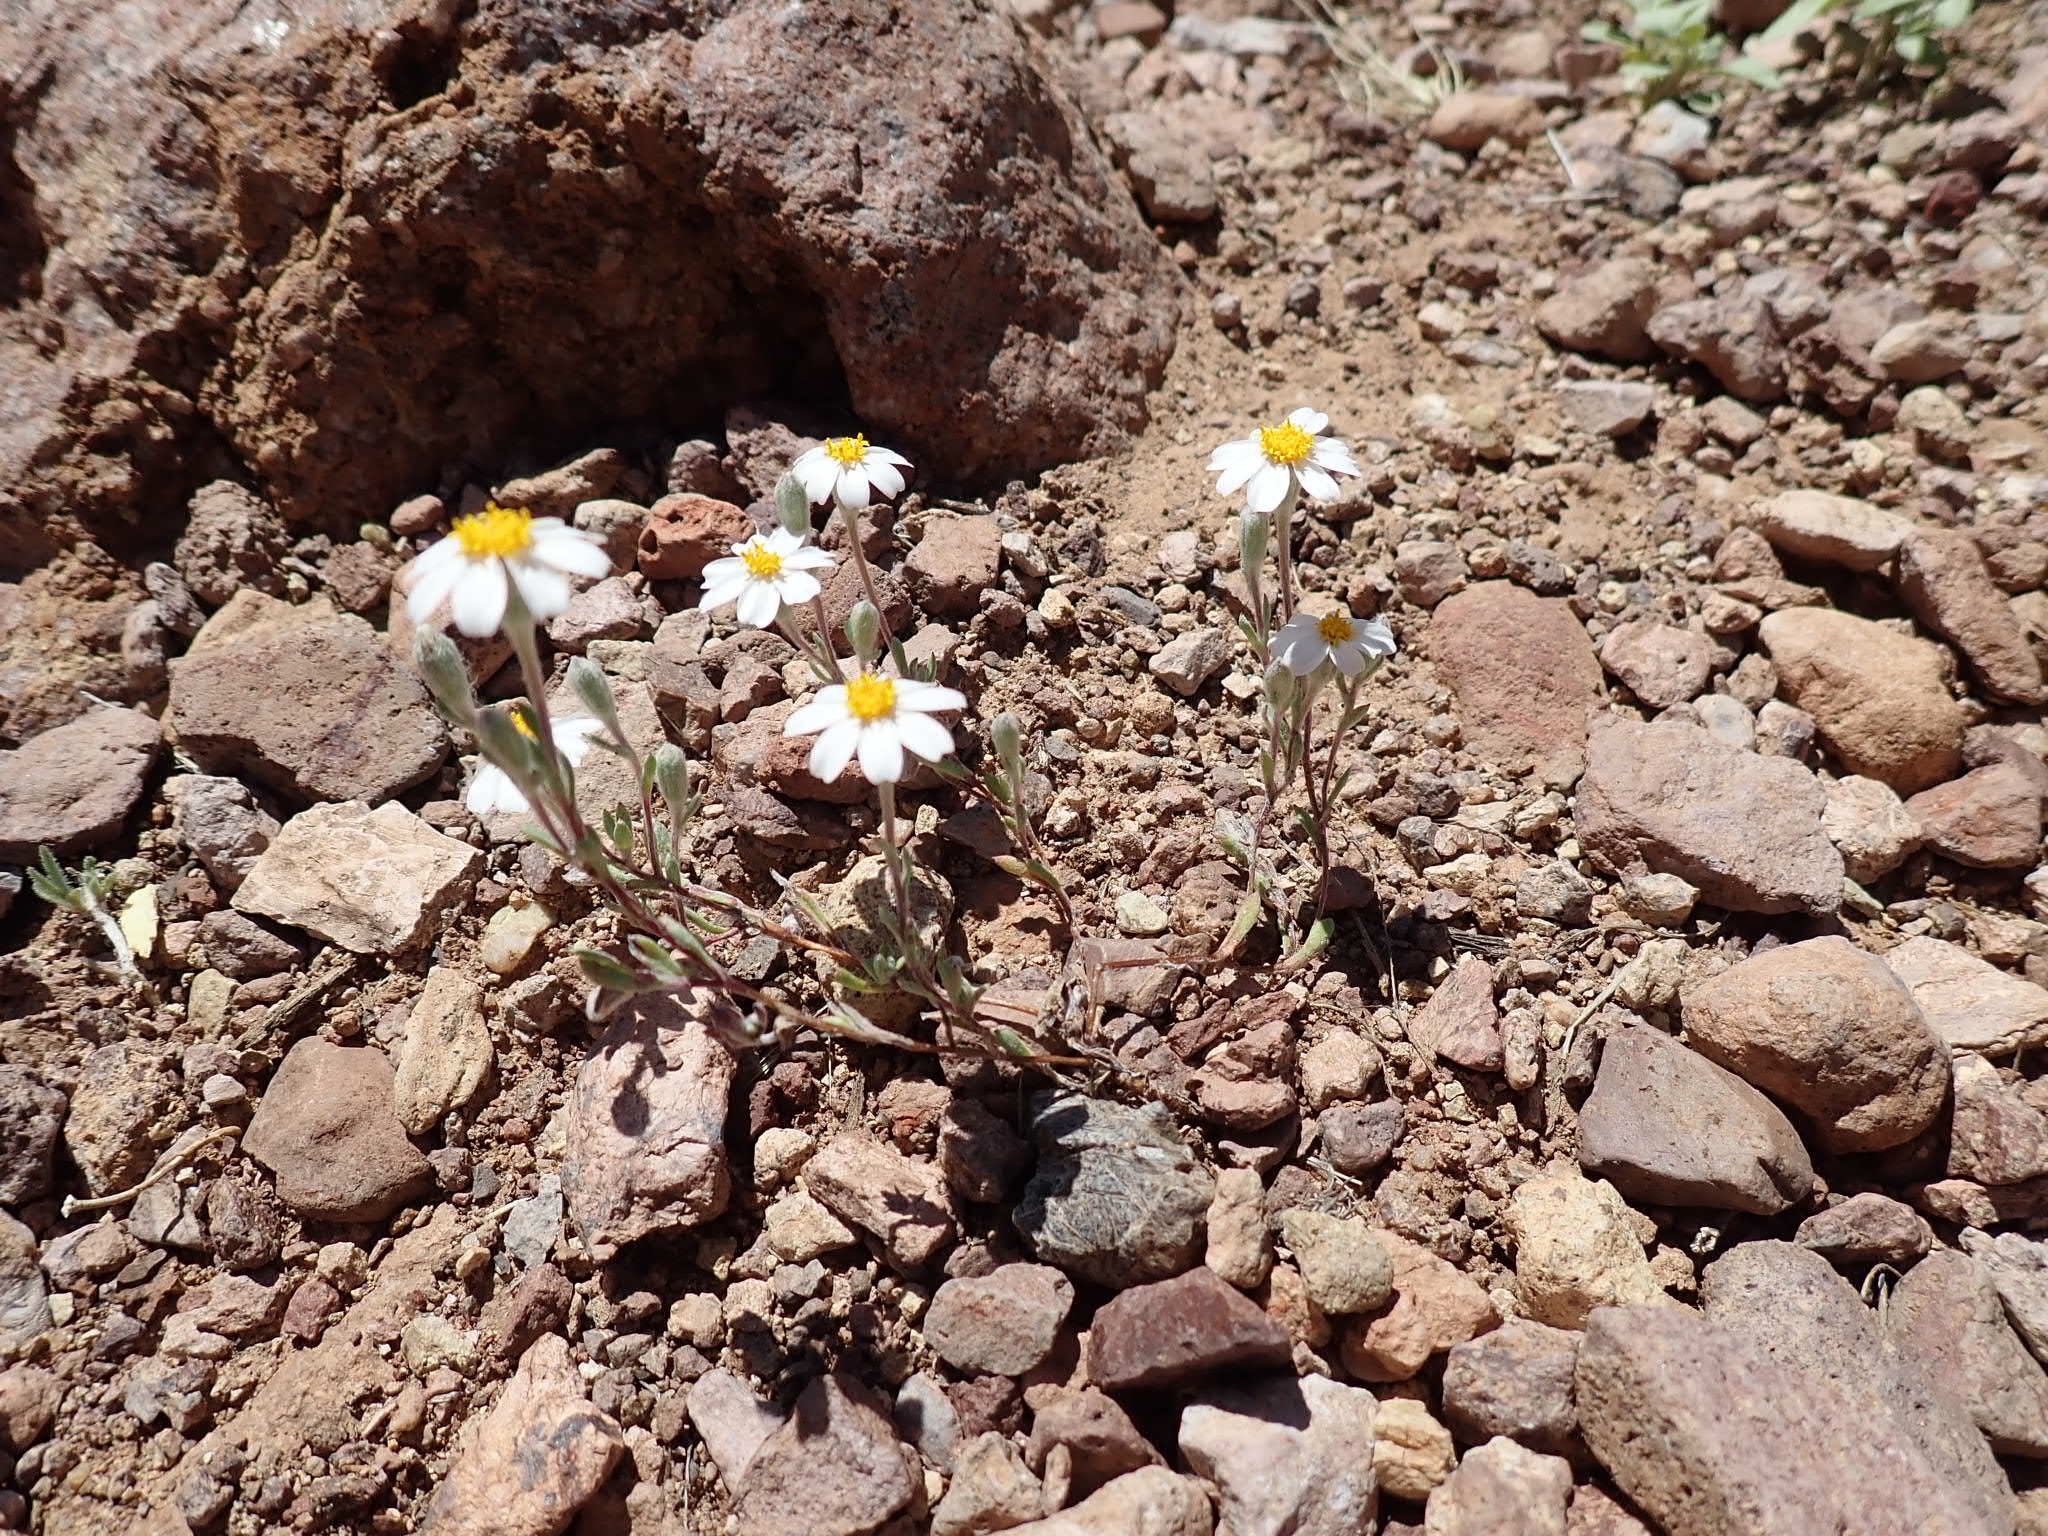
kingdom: Plantae
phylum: Tracheophyta
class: Magnoliopsida
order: Asterales
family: Asteraceae
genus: Eriophyllum
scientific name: Eriophyllum lanosum
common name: White easter-bonnets
